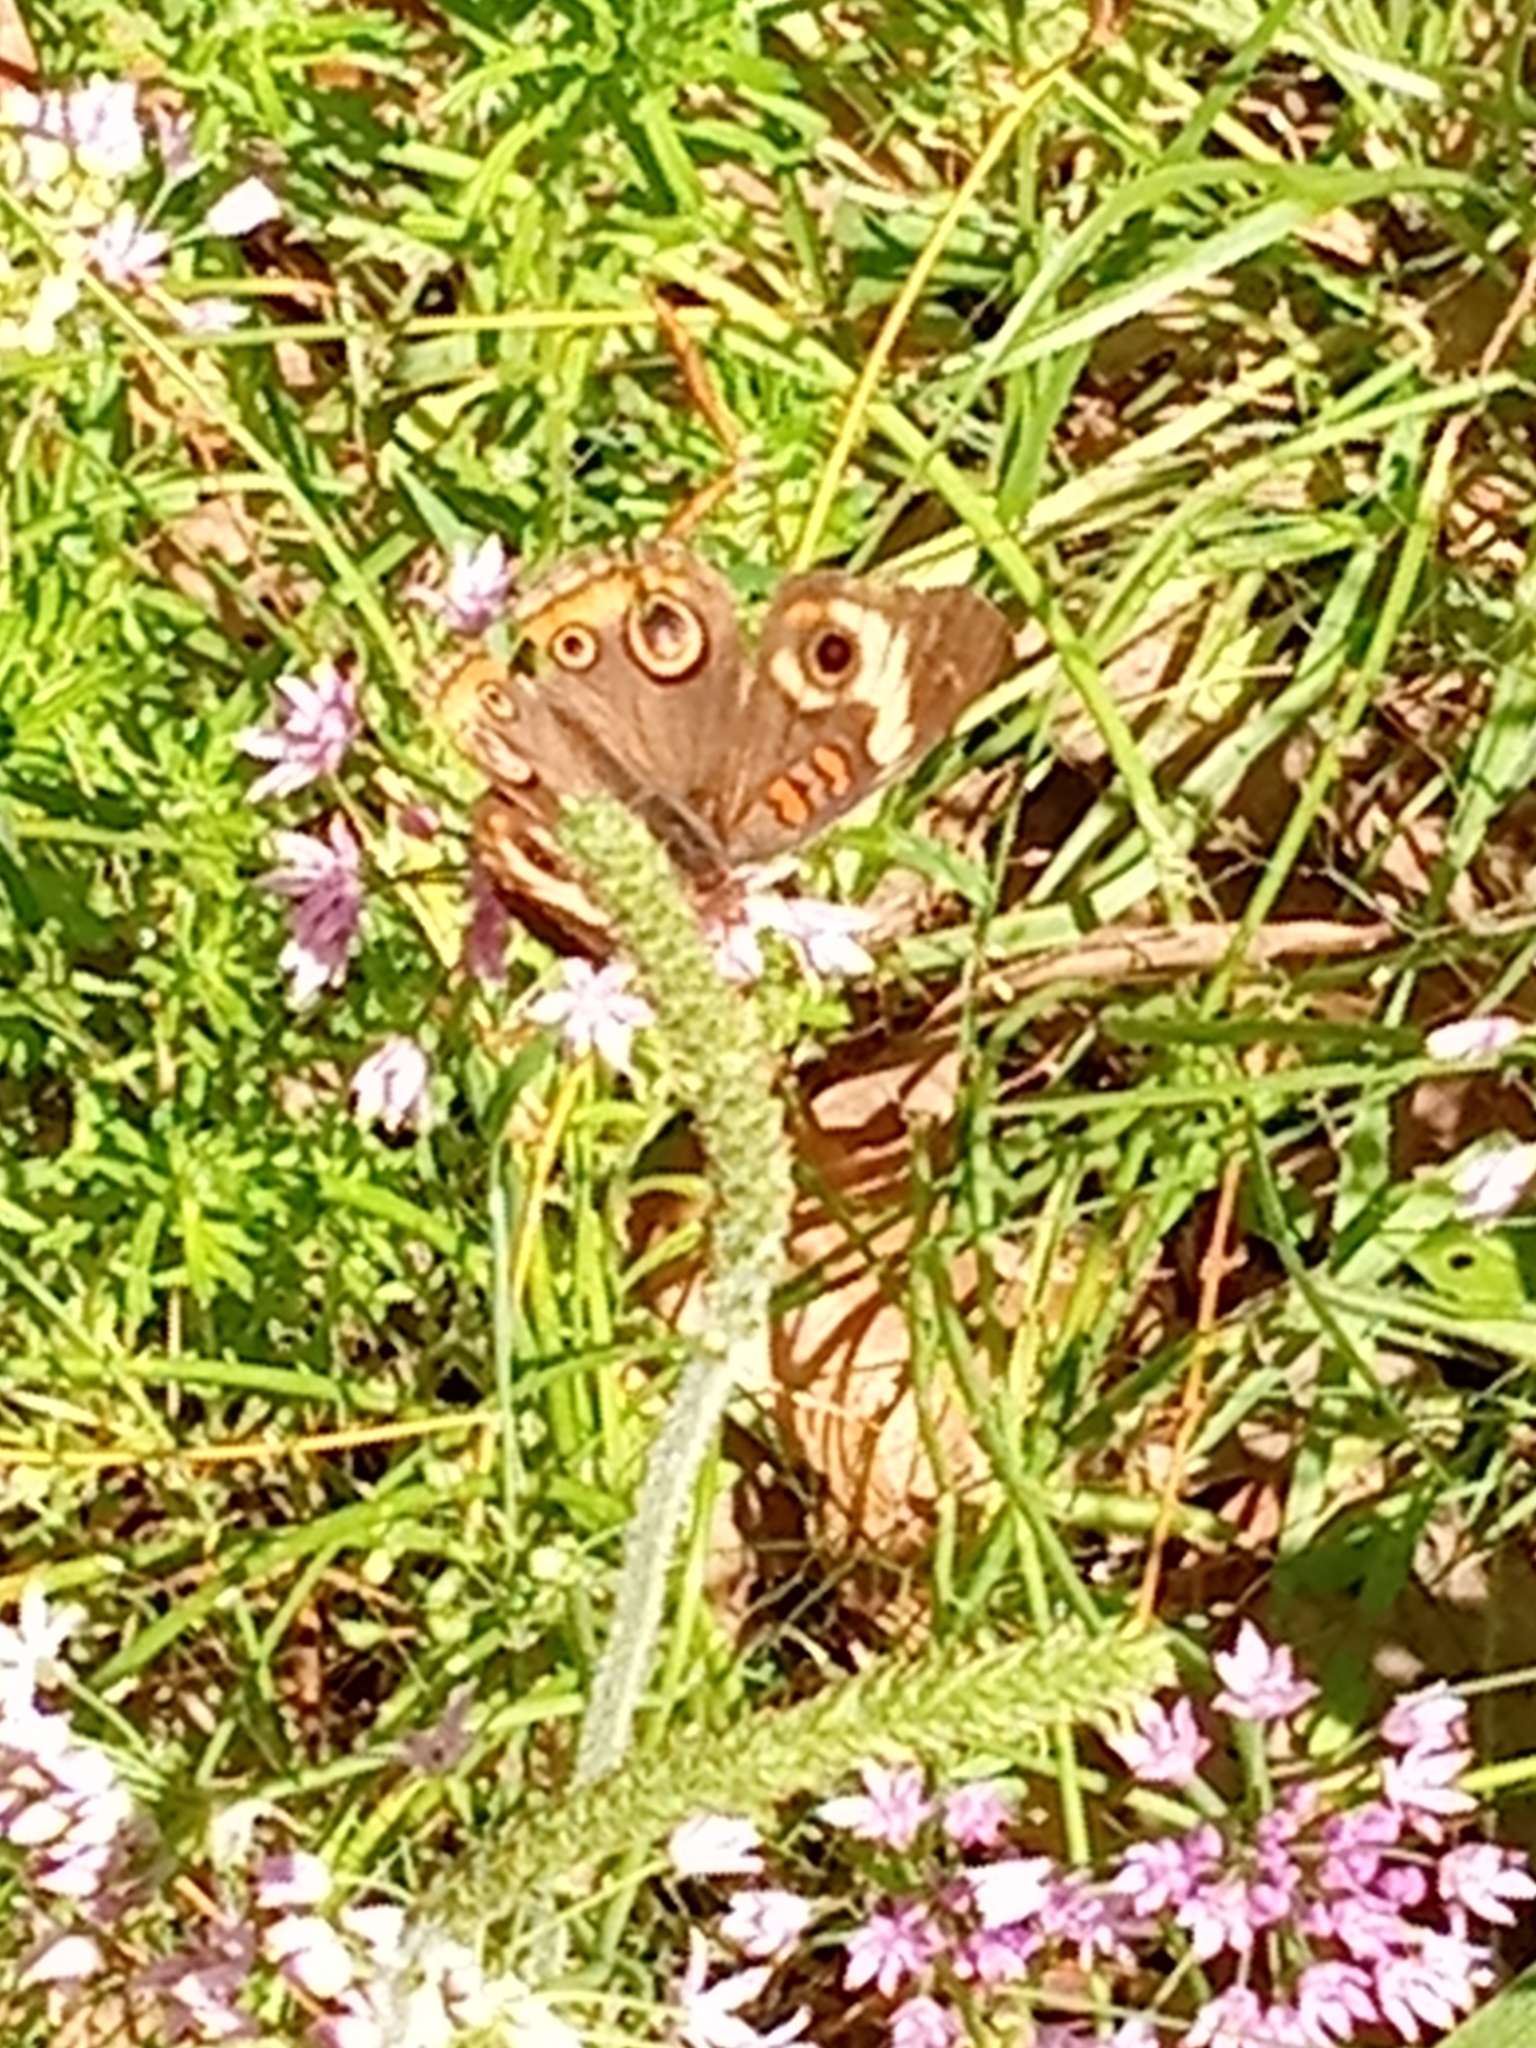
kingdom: Animalia
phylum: Arthropoda
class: Insecta
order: Lepidoptera
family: Nymphalidae
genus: Junonia
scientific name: Junonia coenia
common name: Common buckeye
